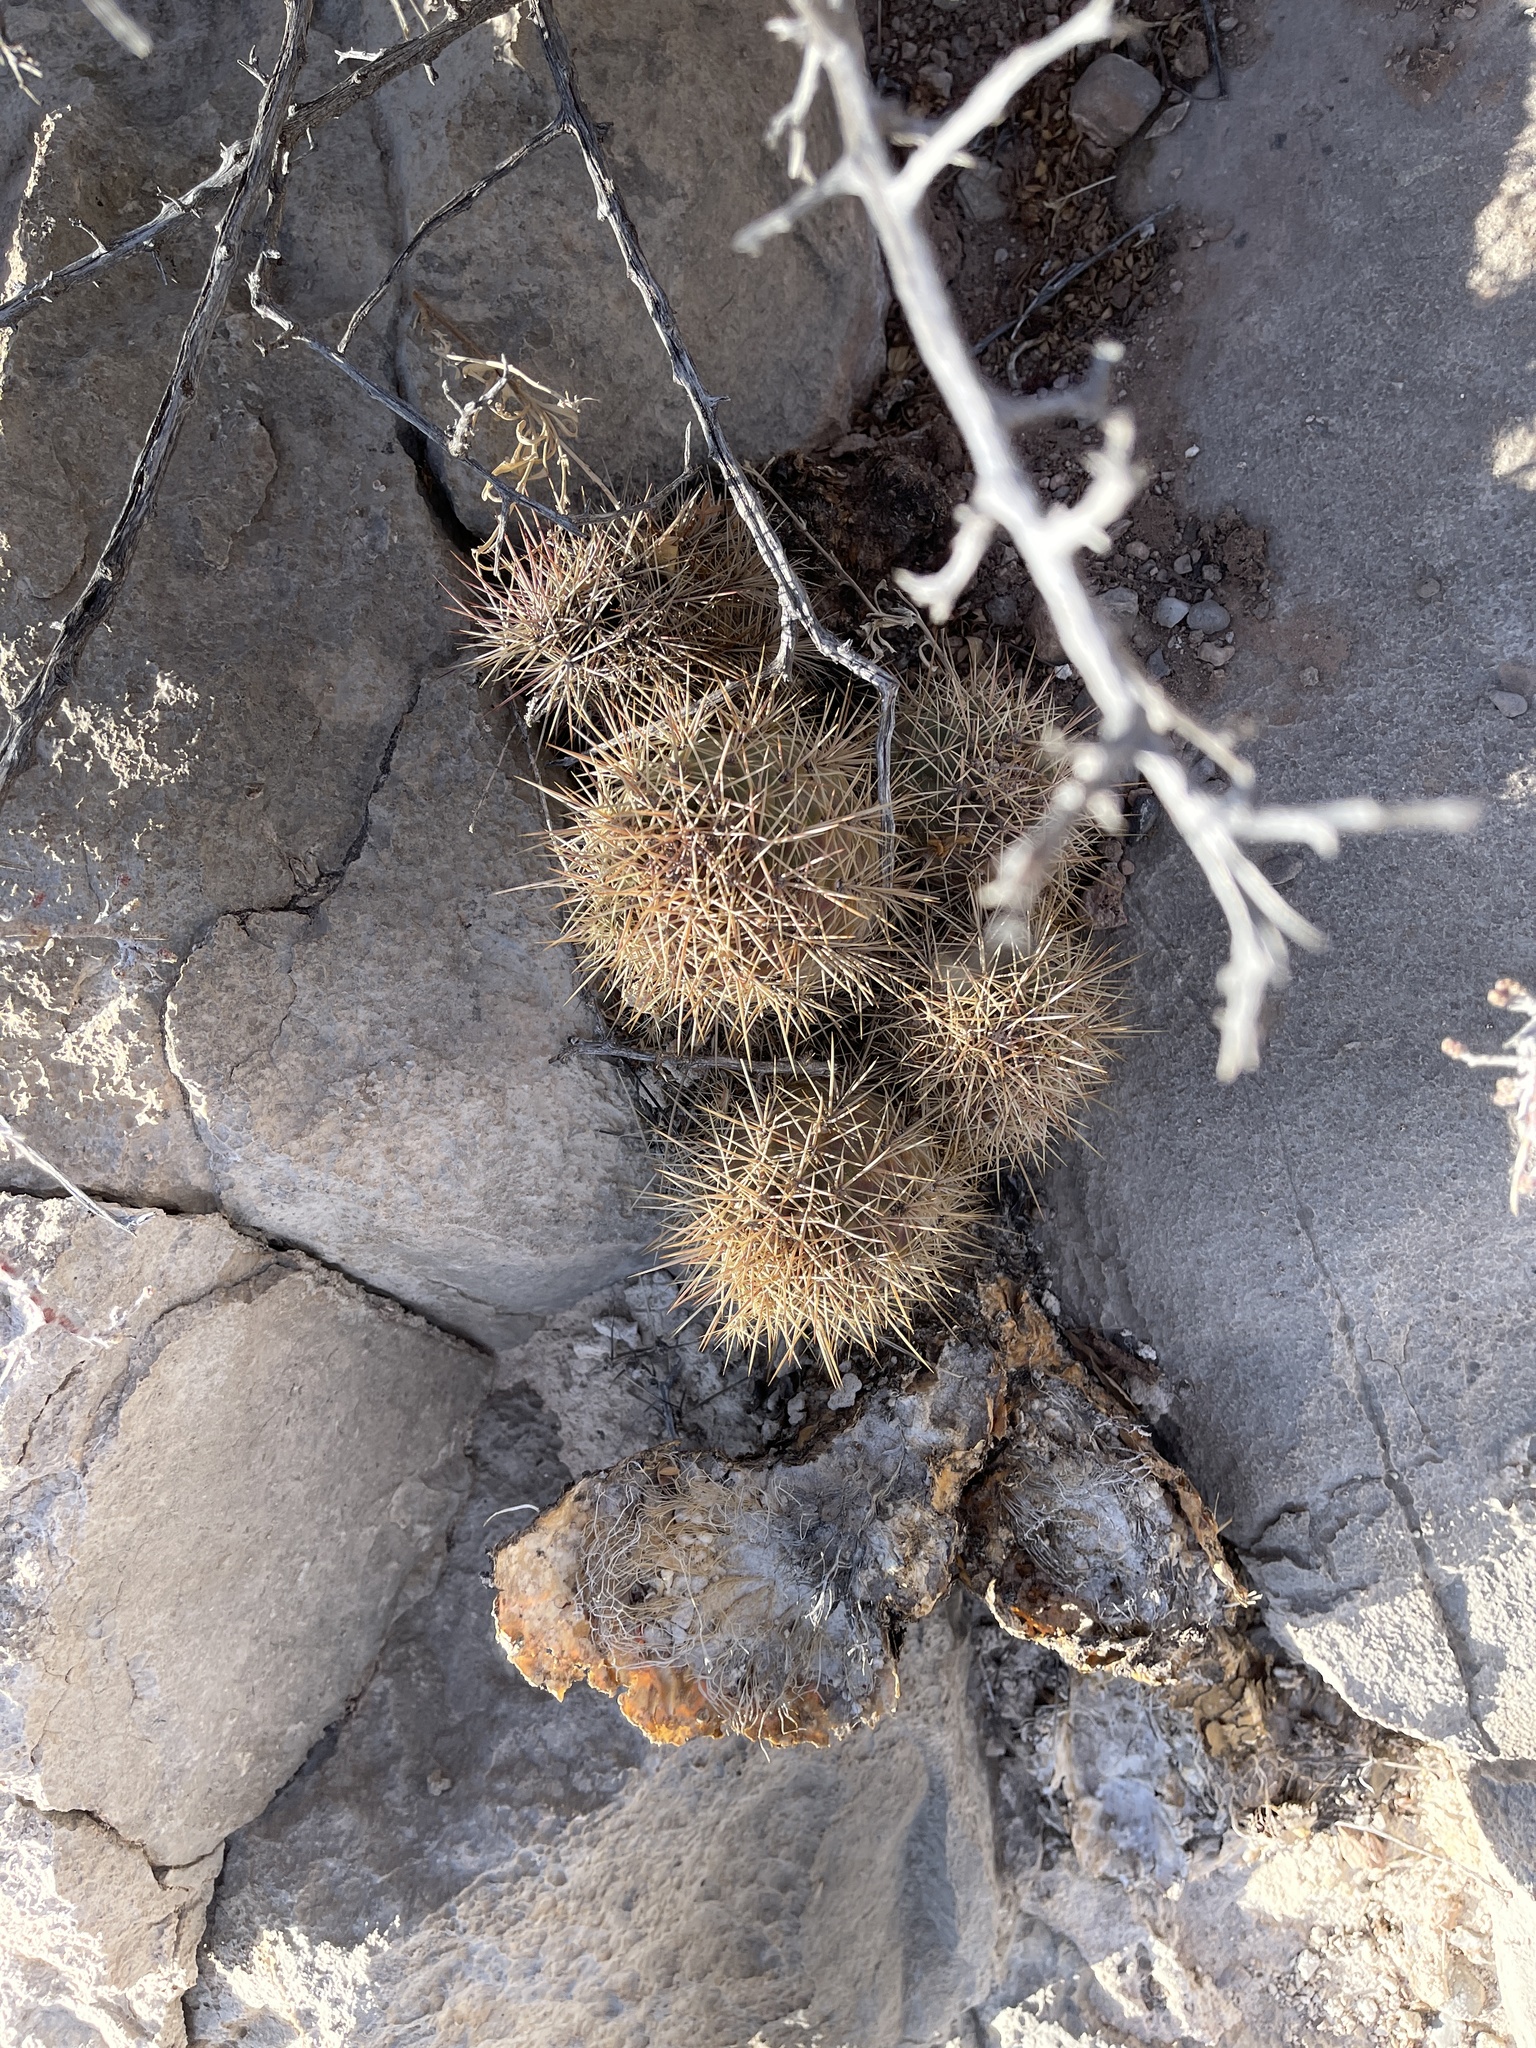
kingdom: Plantae
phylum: Tracheophyta
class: Magnoliopsida
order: Caryophyllales
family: Cactaceae
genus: Echinocereus
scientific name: Echinocereus coccineus
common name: Scarlet hedgehog cactus
